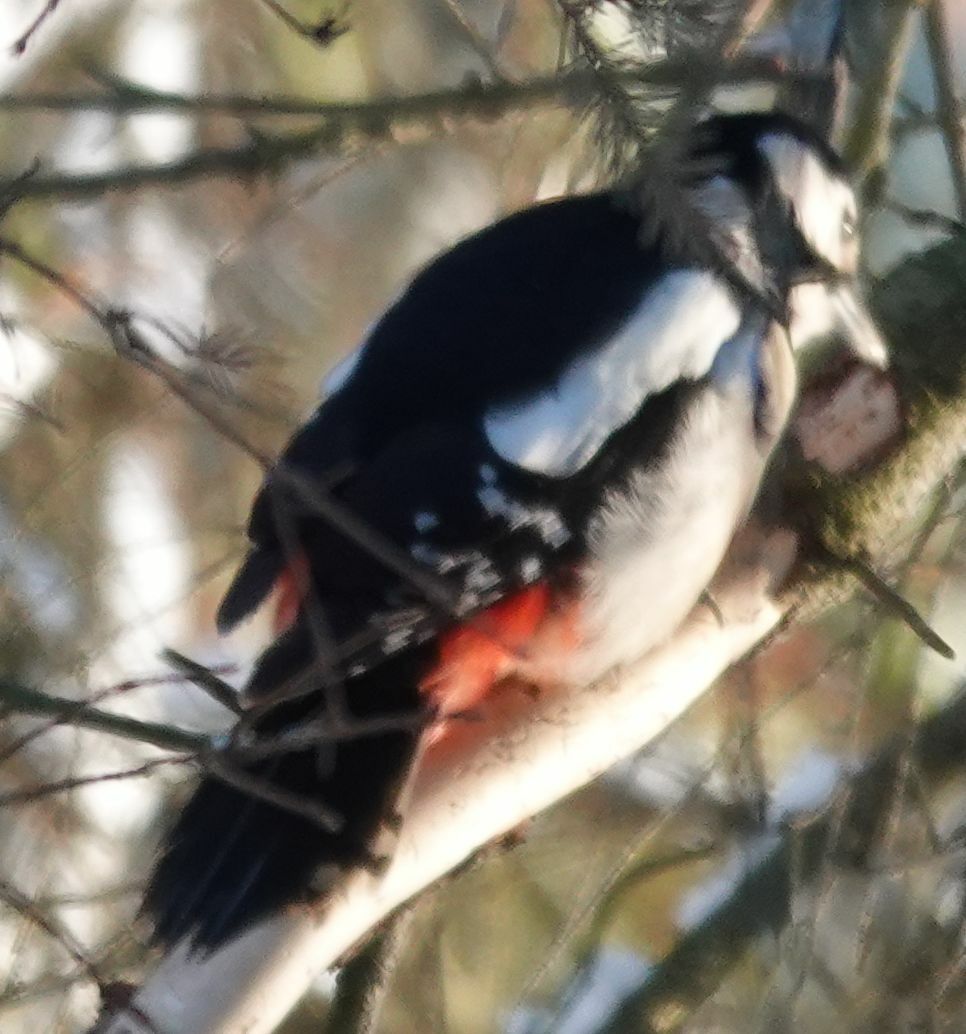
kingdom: Animalia
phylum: Chordata
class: Aves
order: Piciformes
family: Picidae
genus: Dendrocopos
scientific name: Dendrocopos major
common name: Great spotted woodpecker
